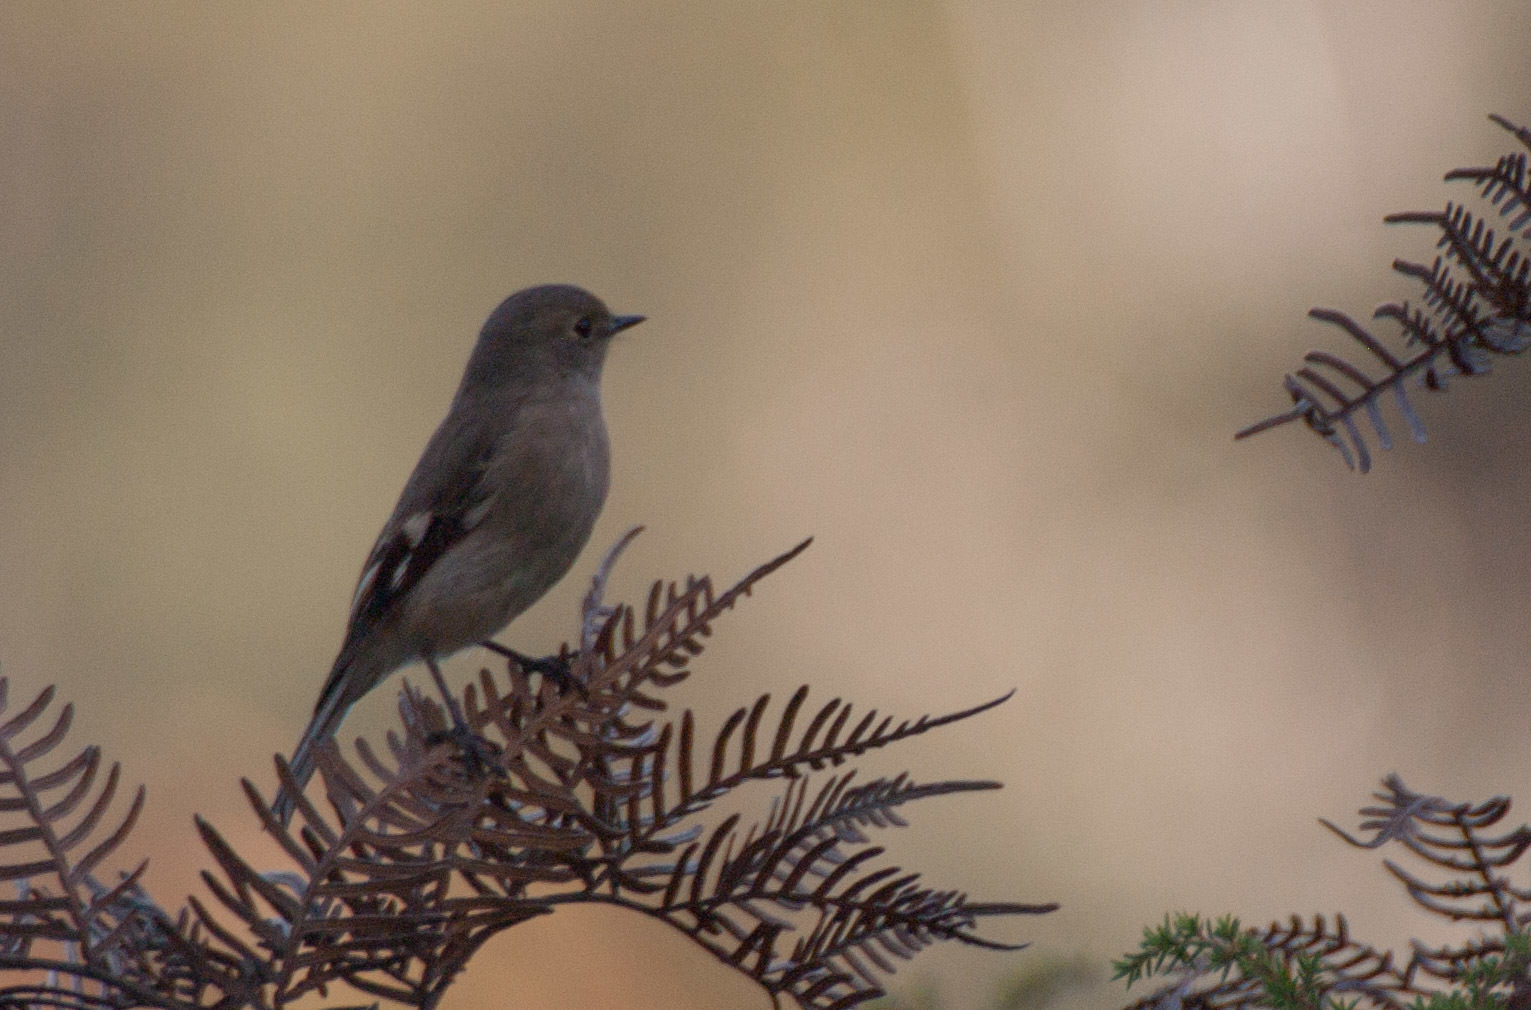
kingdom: Animalia
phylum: Chordata
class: Aves
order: Passeriformes
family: Petroicidae
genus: Petroica
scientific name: Petroica rodinogaster
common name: Pink robin
